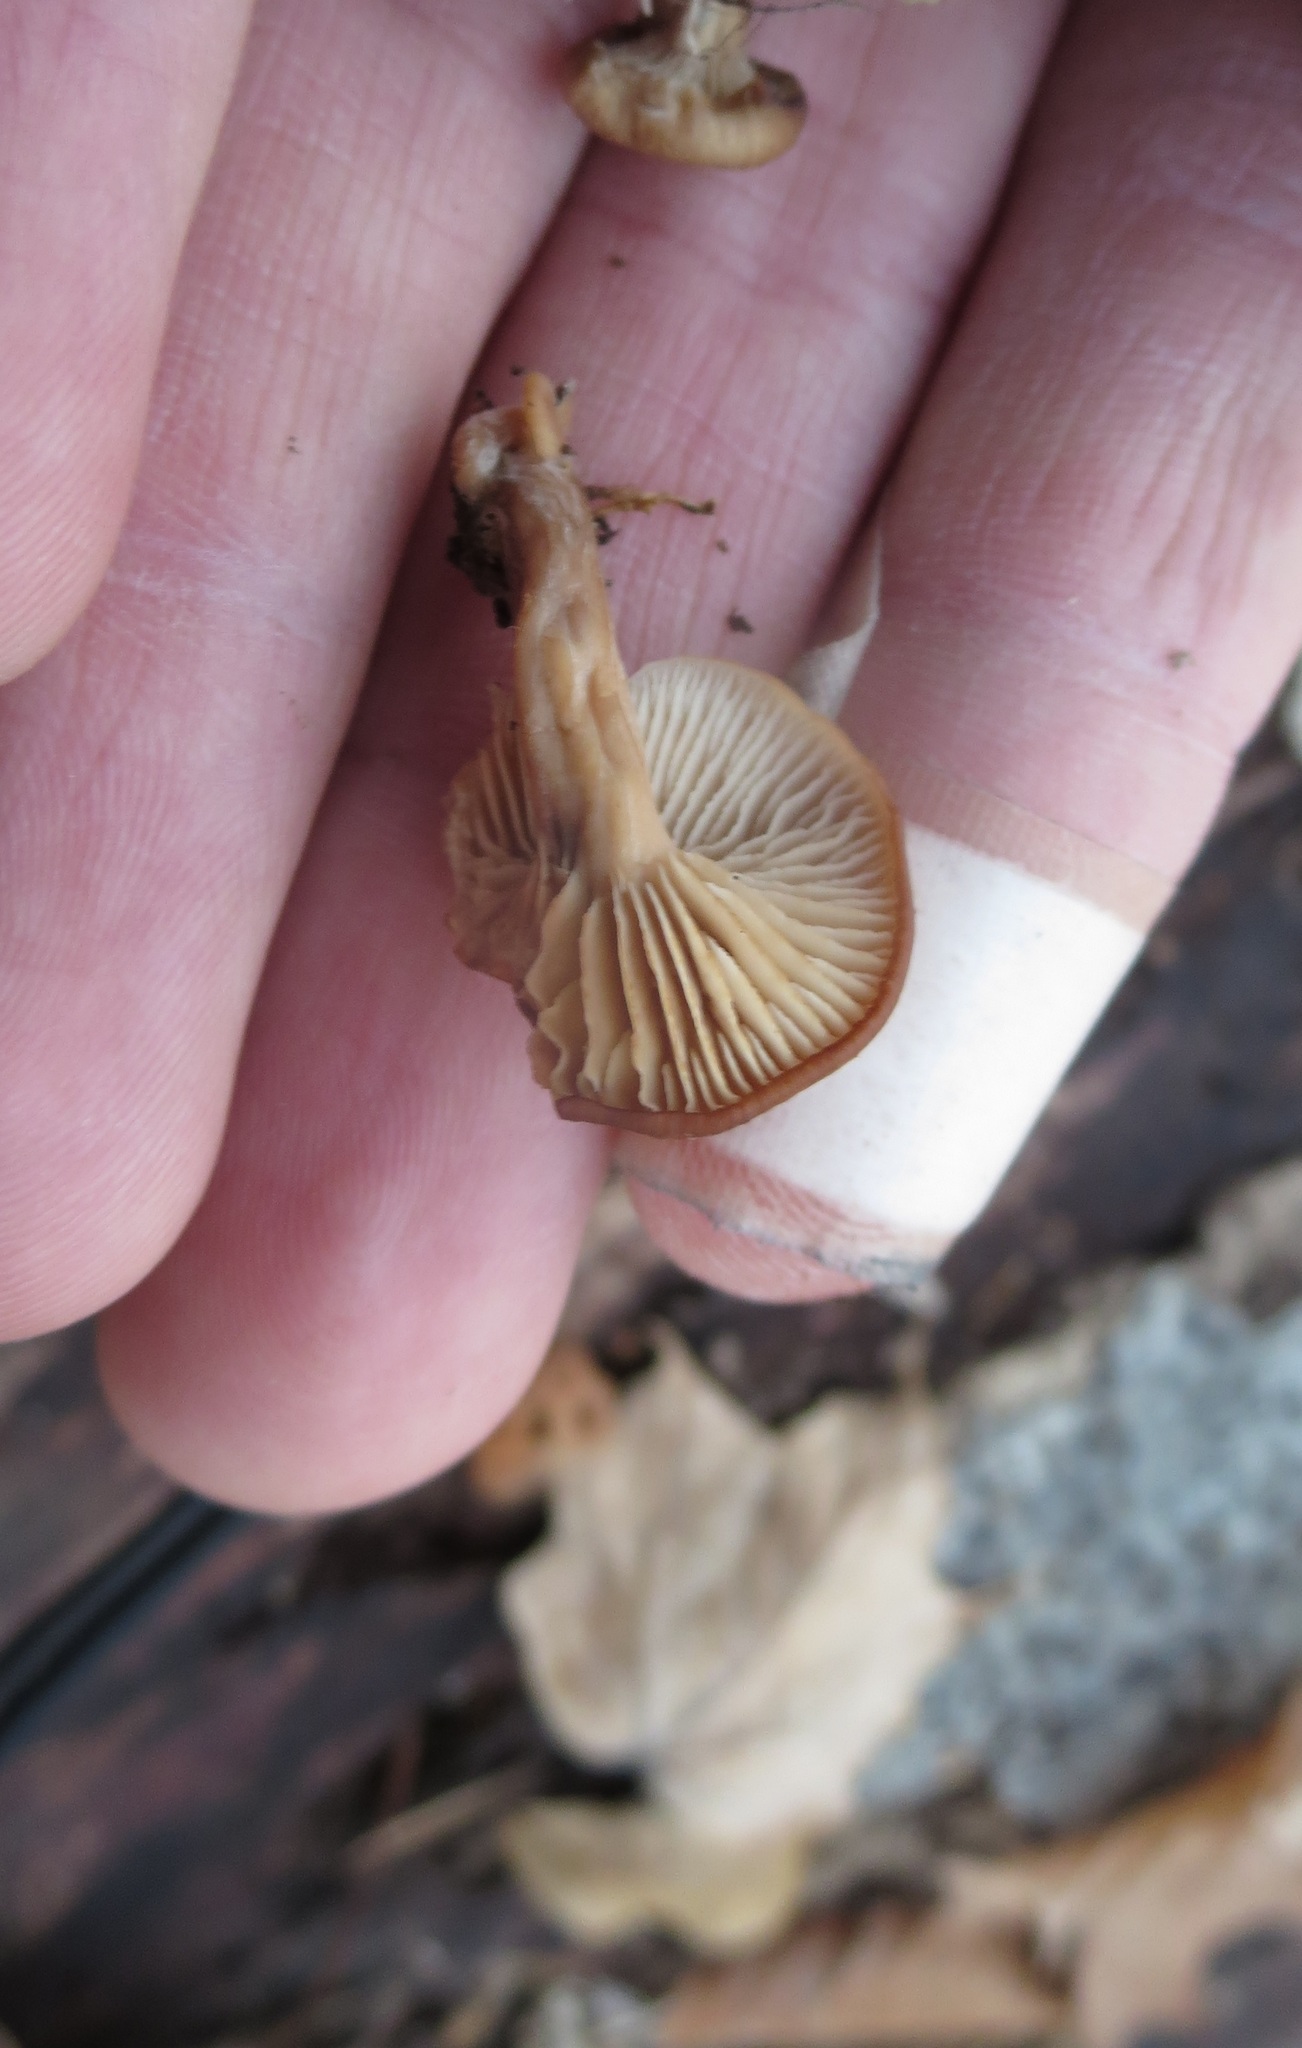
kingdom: Fungi
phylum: Basidiomycota
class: Agaricomycetes
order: Russulales
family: Auriscalpiaceae
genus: Lentinellus
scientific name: Lentinellus micheneri
